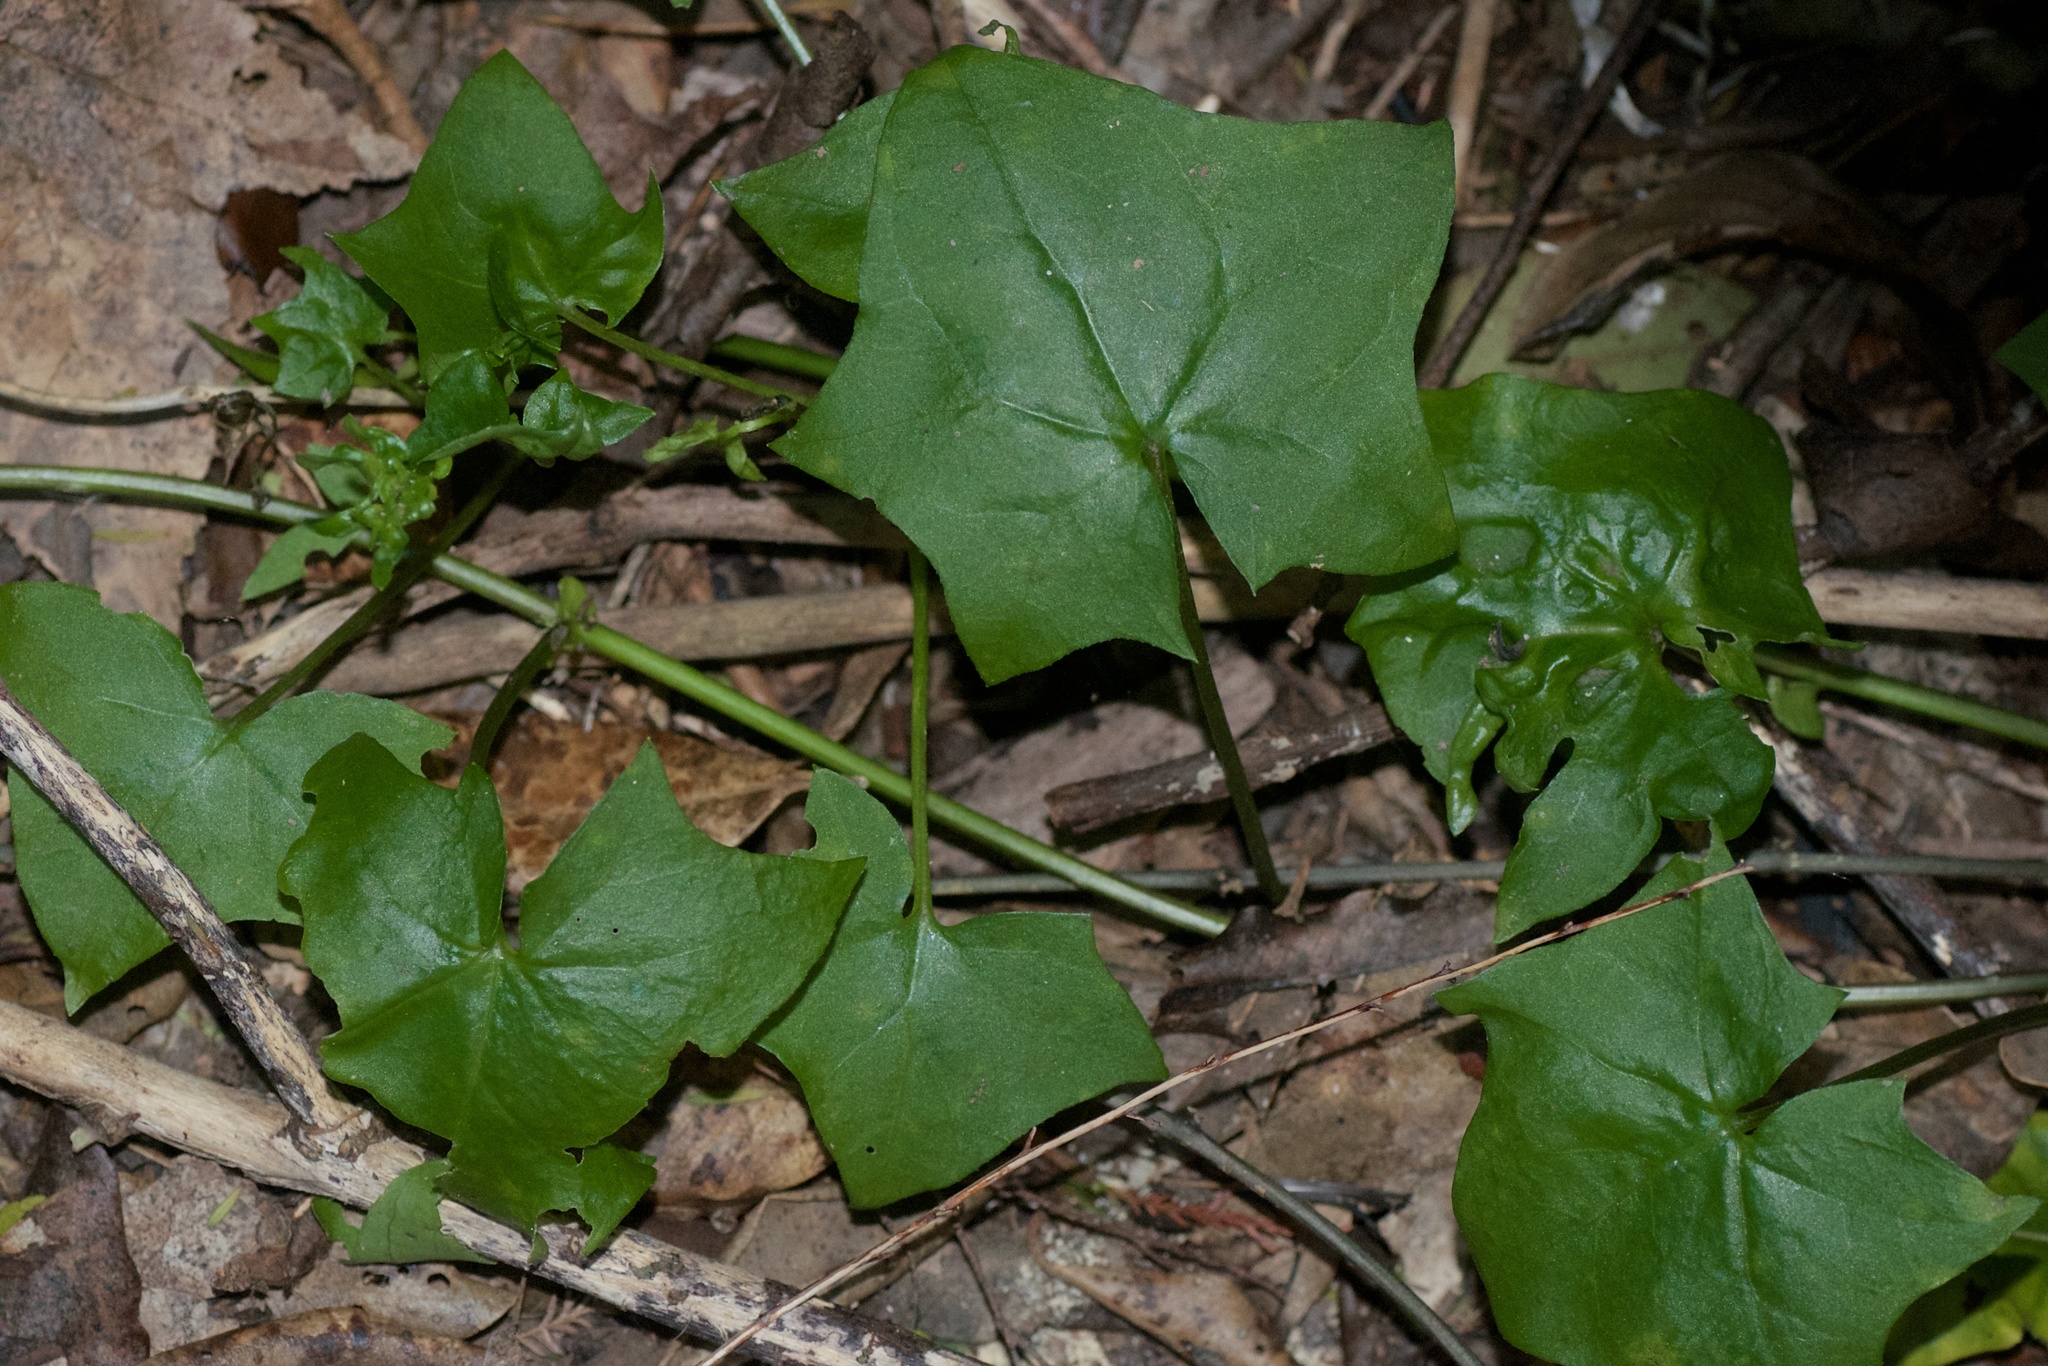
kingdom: Plantae
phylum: Tracheophyta
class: Magnoliopsida
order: Asterales
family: Asteraceae
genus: Delairea
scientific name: Delairea odorata
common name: Cape-ivy
